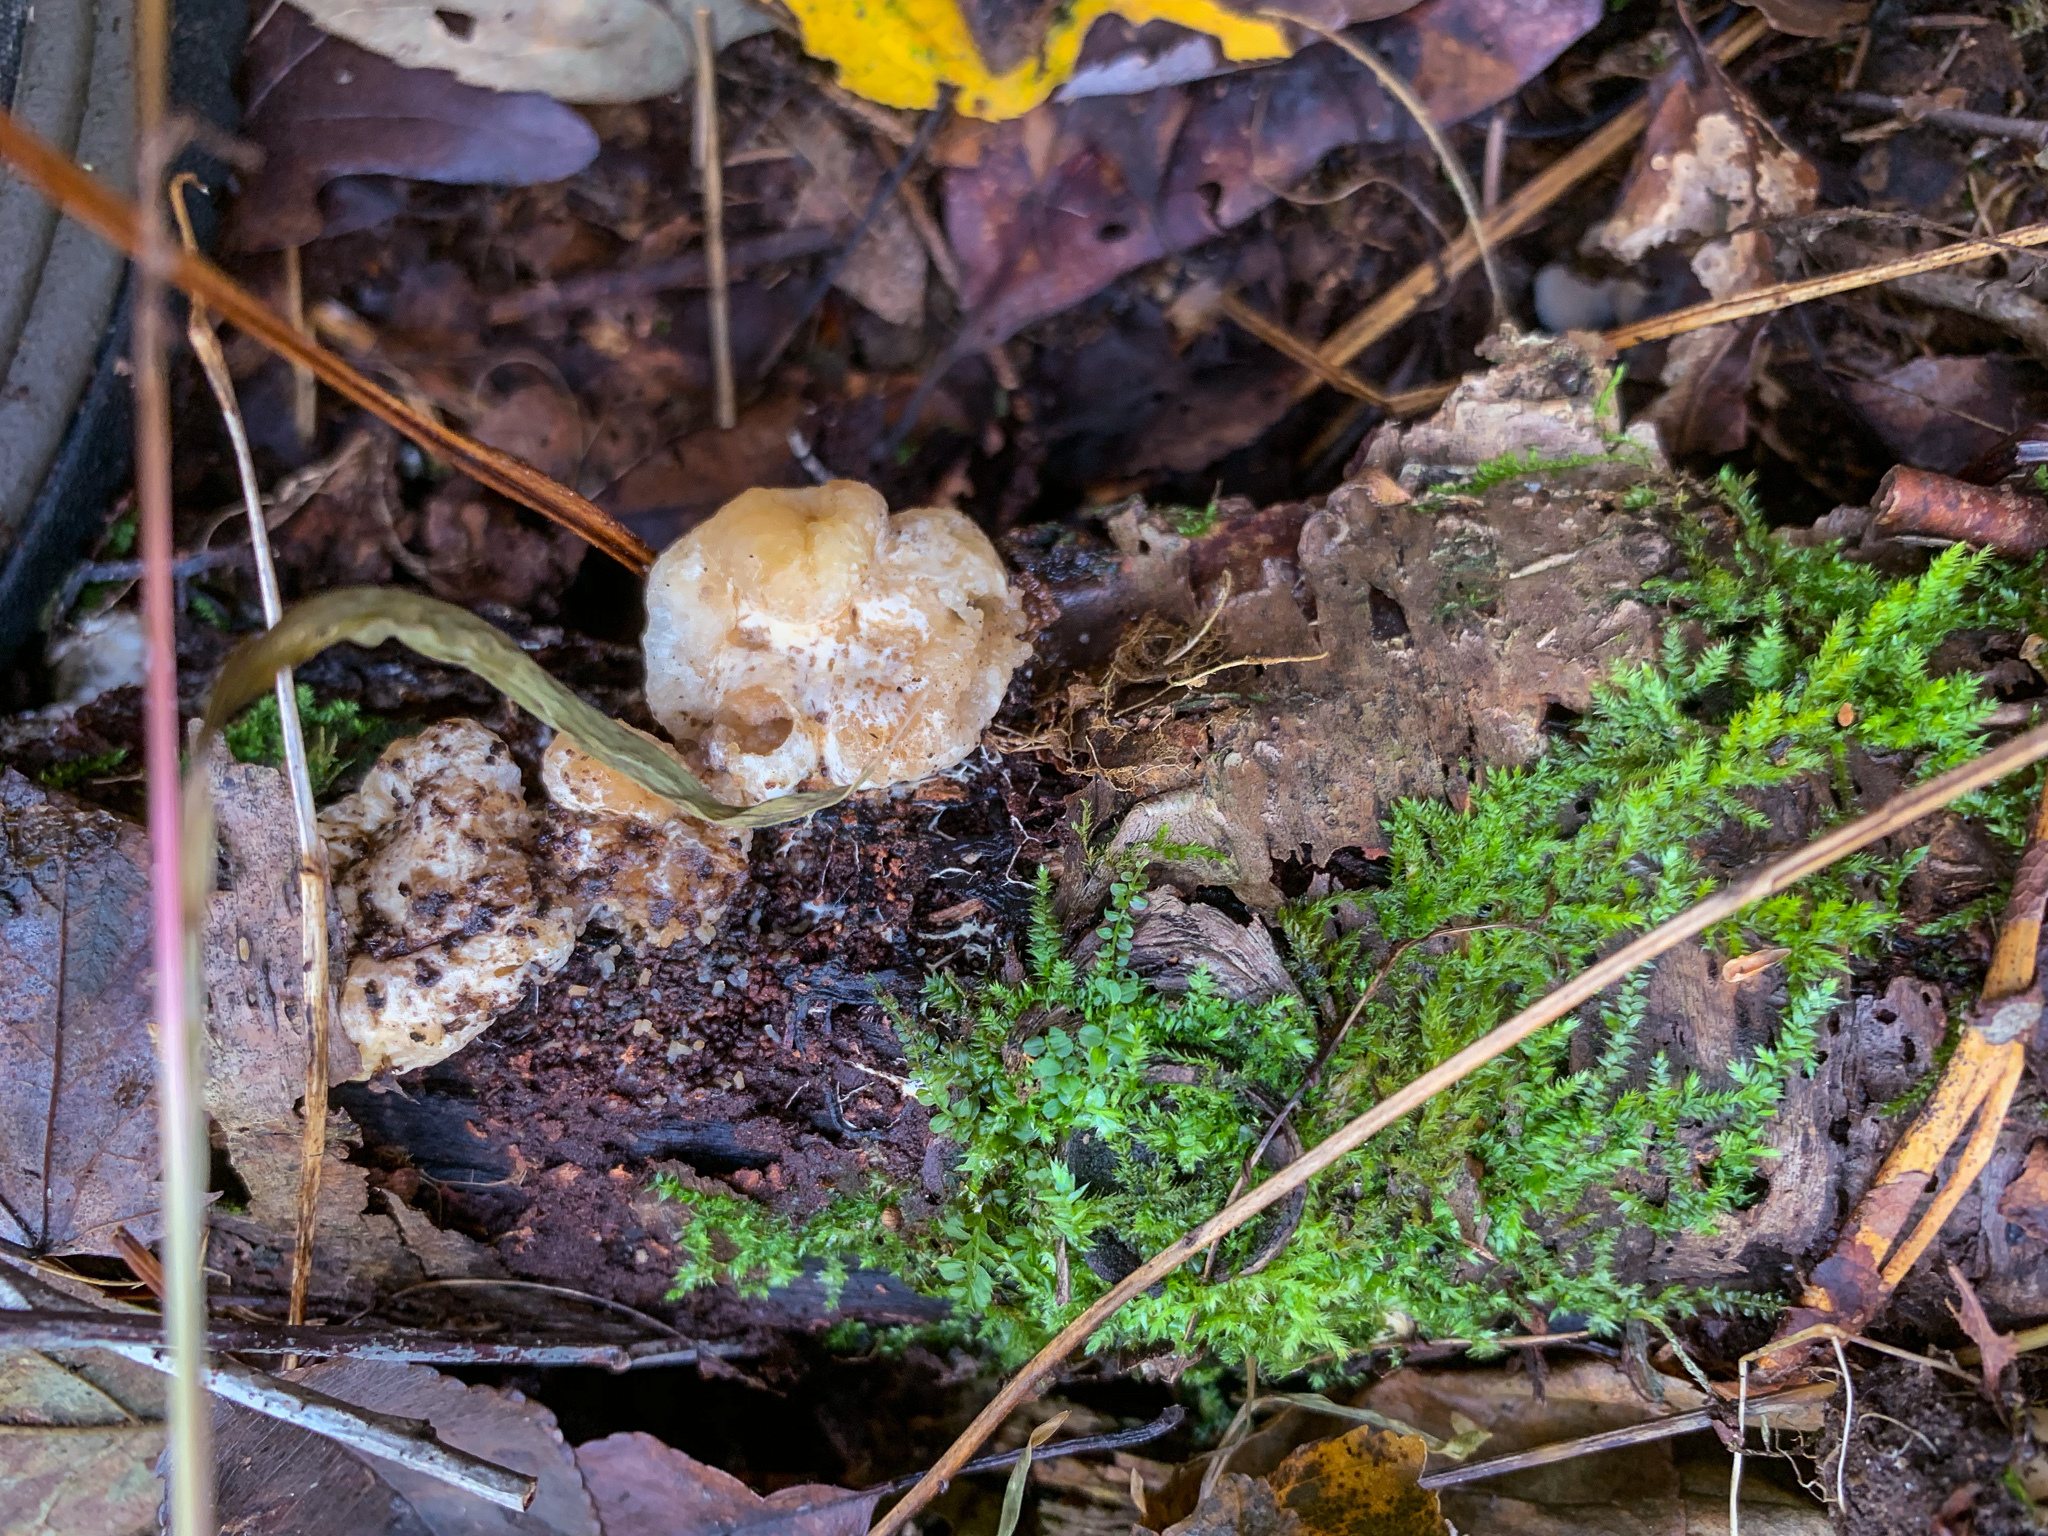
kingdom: Fungi
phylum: Basidiomycota
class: Agaricomycetes
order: Agaricales
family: Entolomataceae
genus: Entoloma
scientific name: Entoloma abortivum
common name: Aborted entoloma
